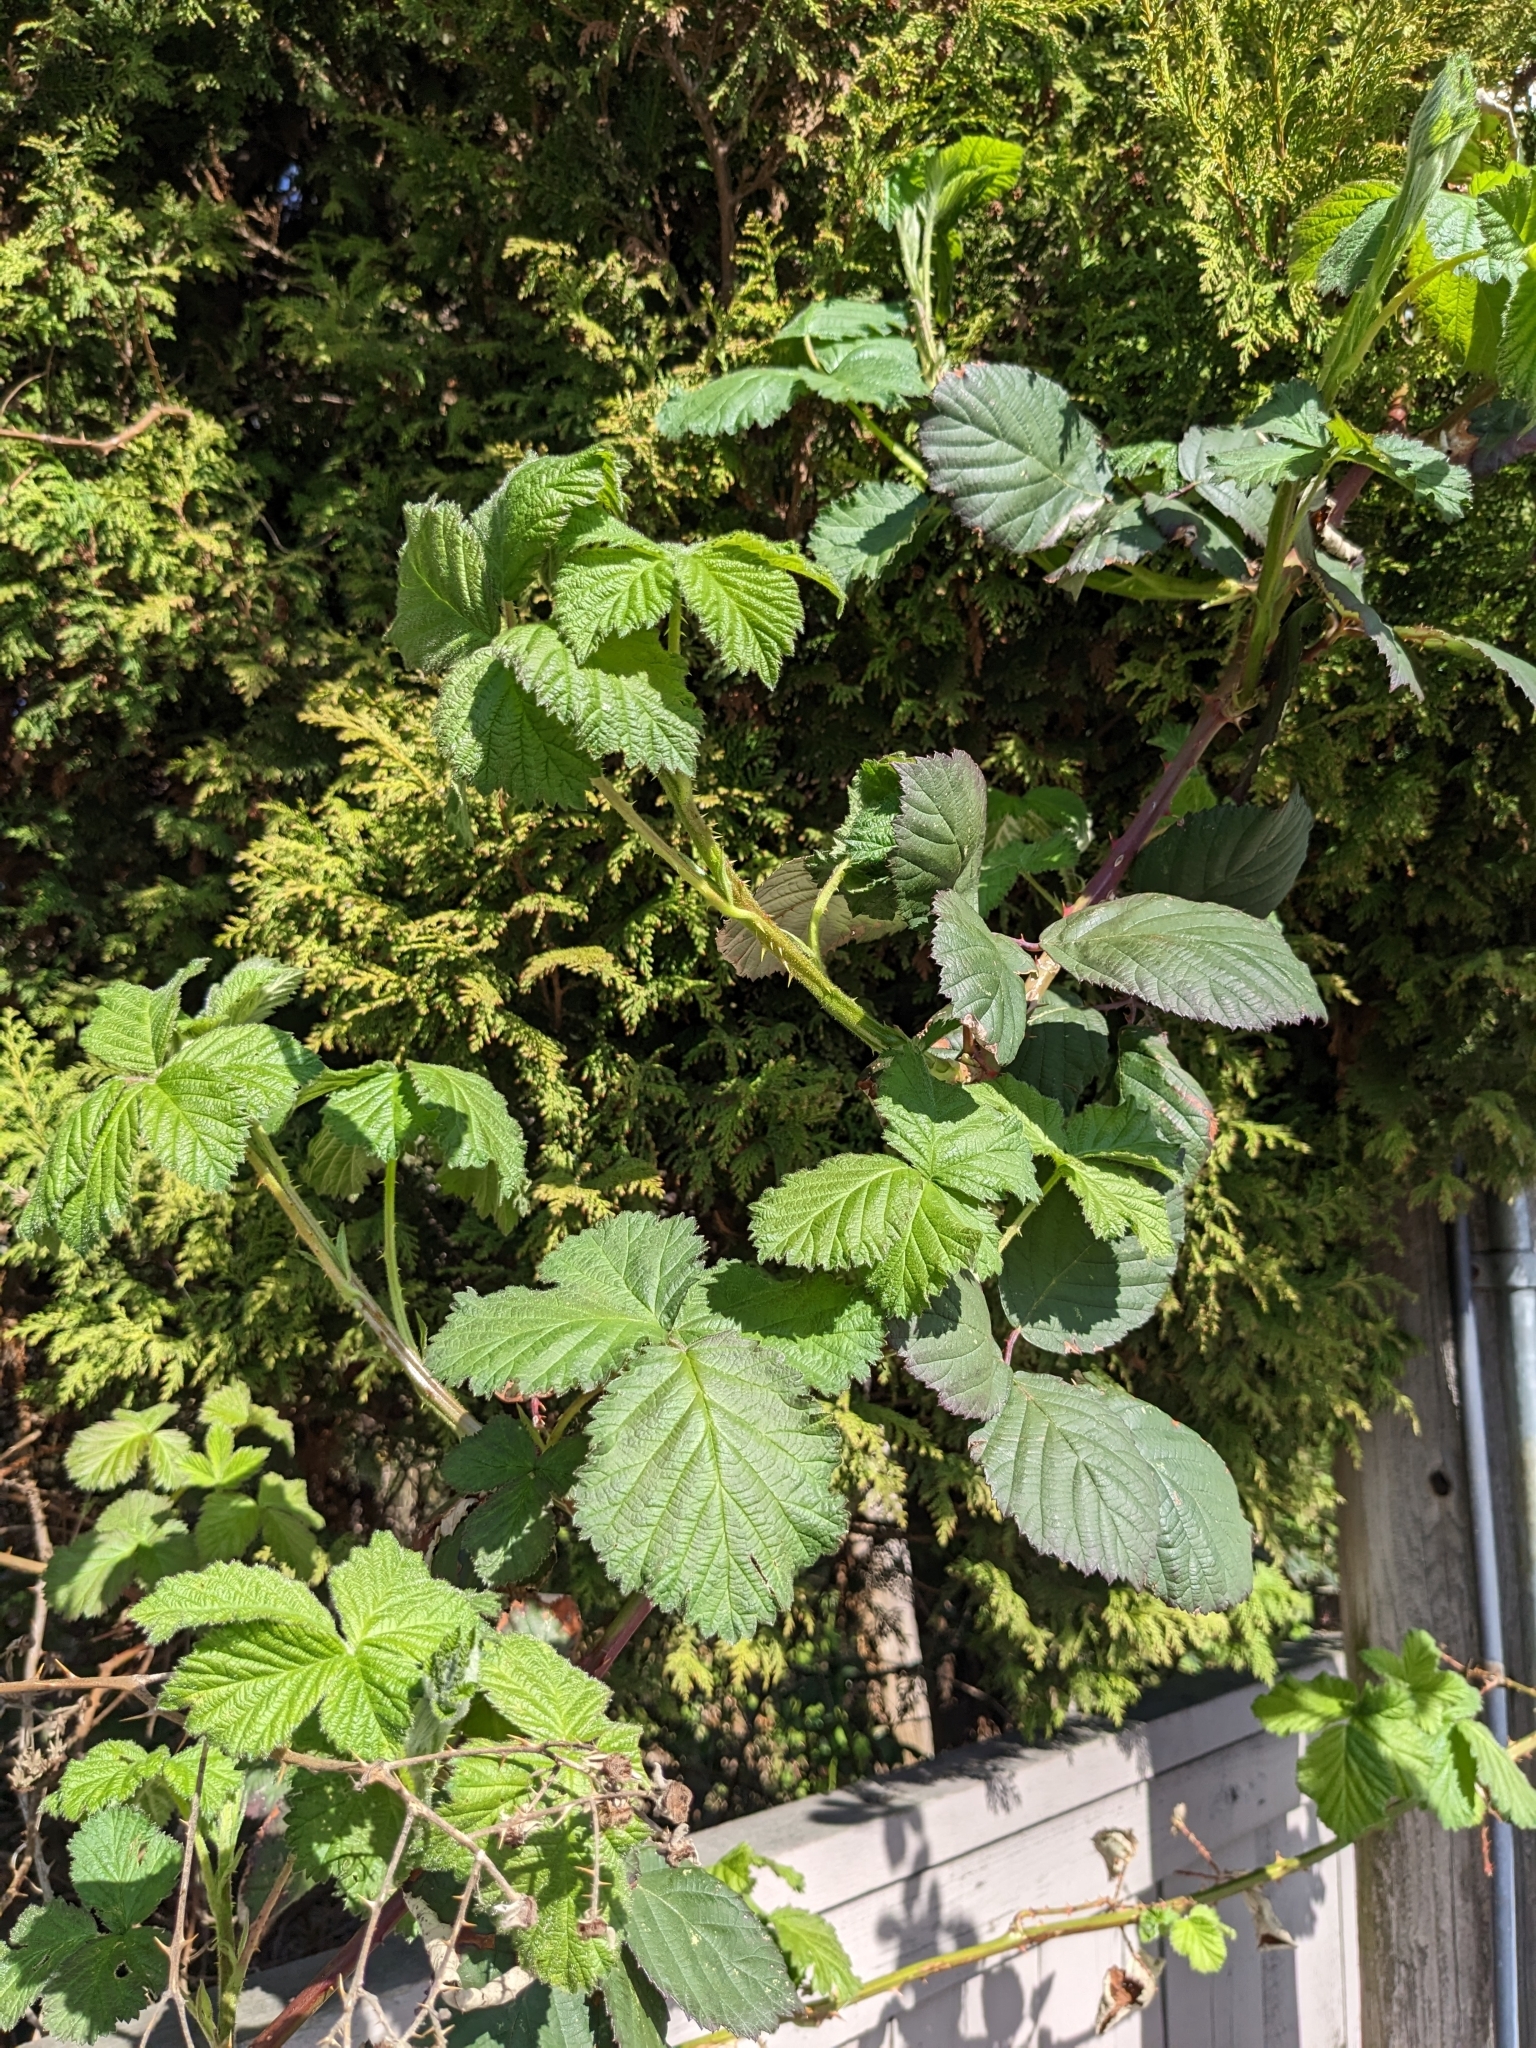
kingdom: Plantae
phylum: Tracheophyta
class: Magnoliopsida
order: Rosales
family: Rosaceae
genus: Rubus
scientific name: Rubus bifrons
